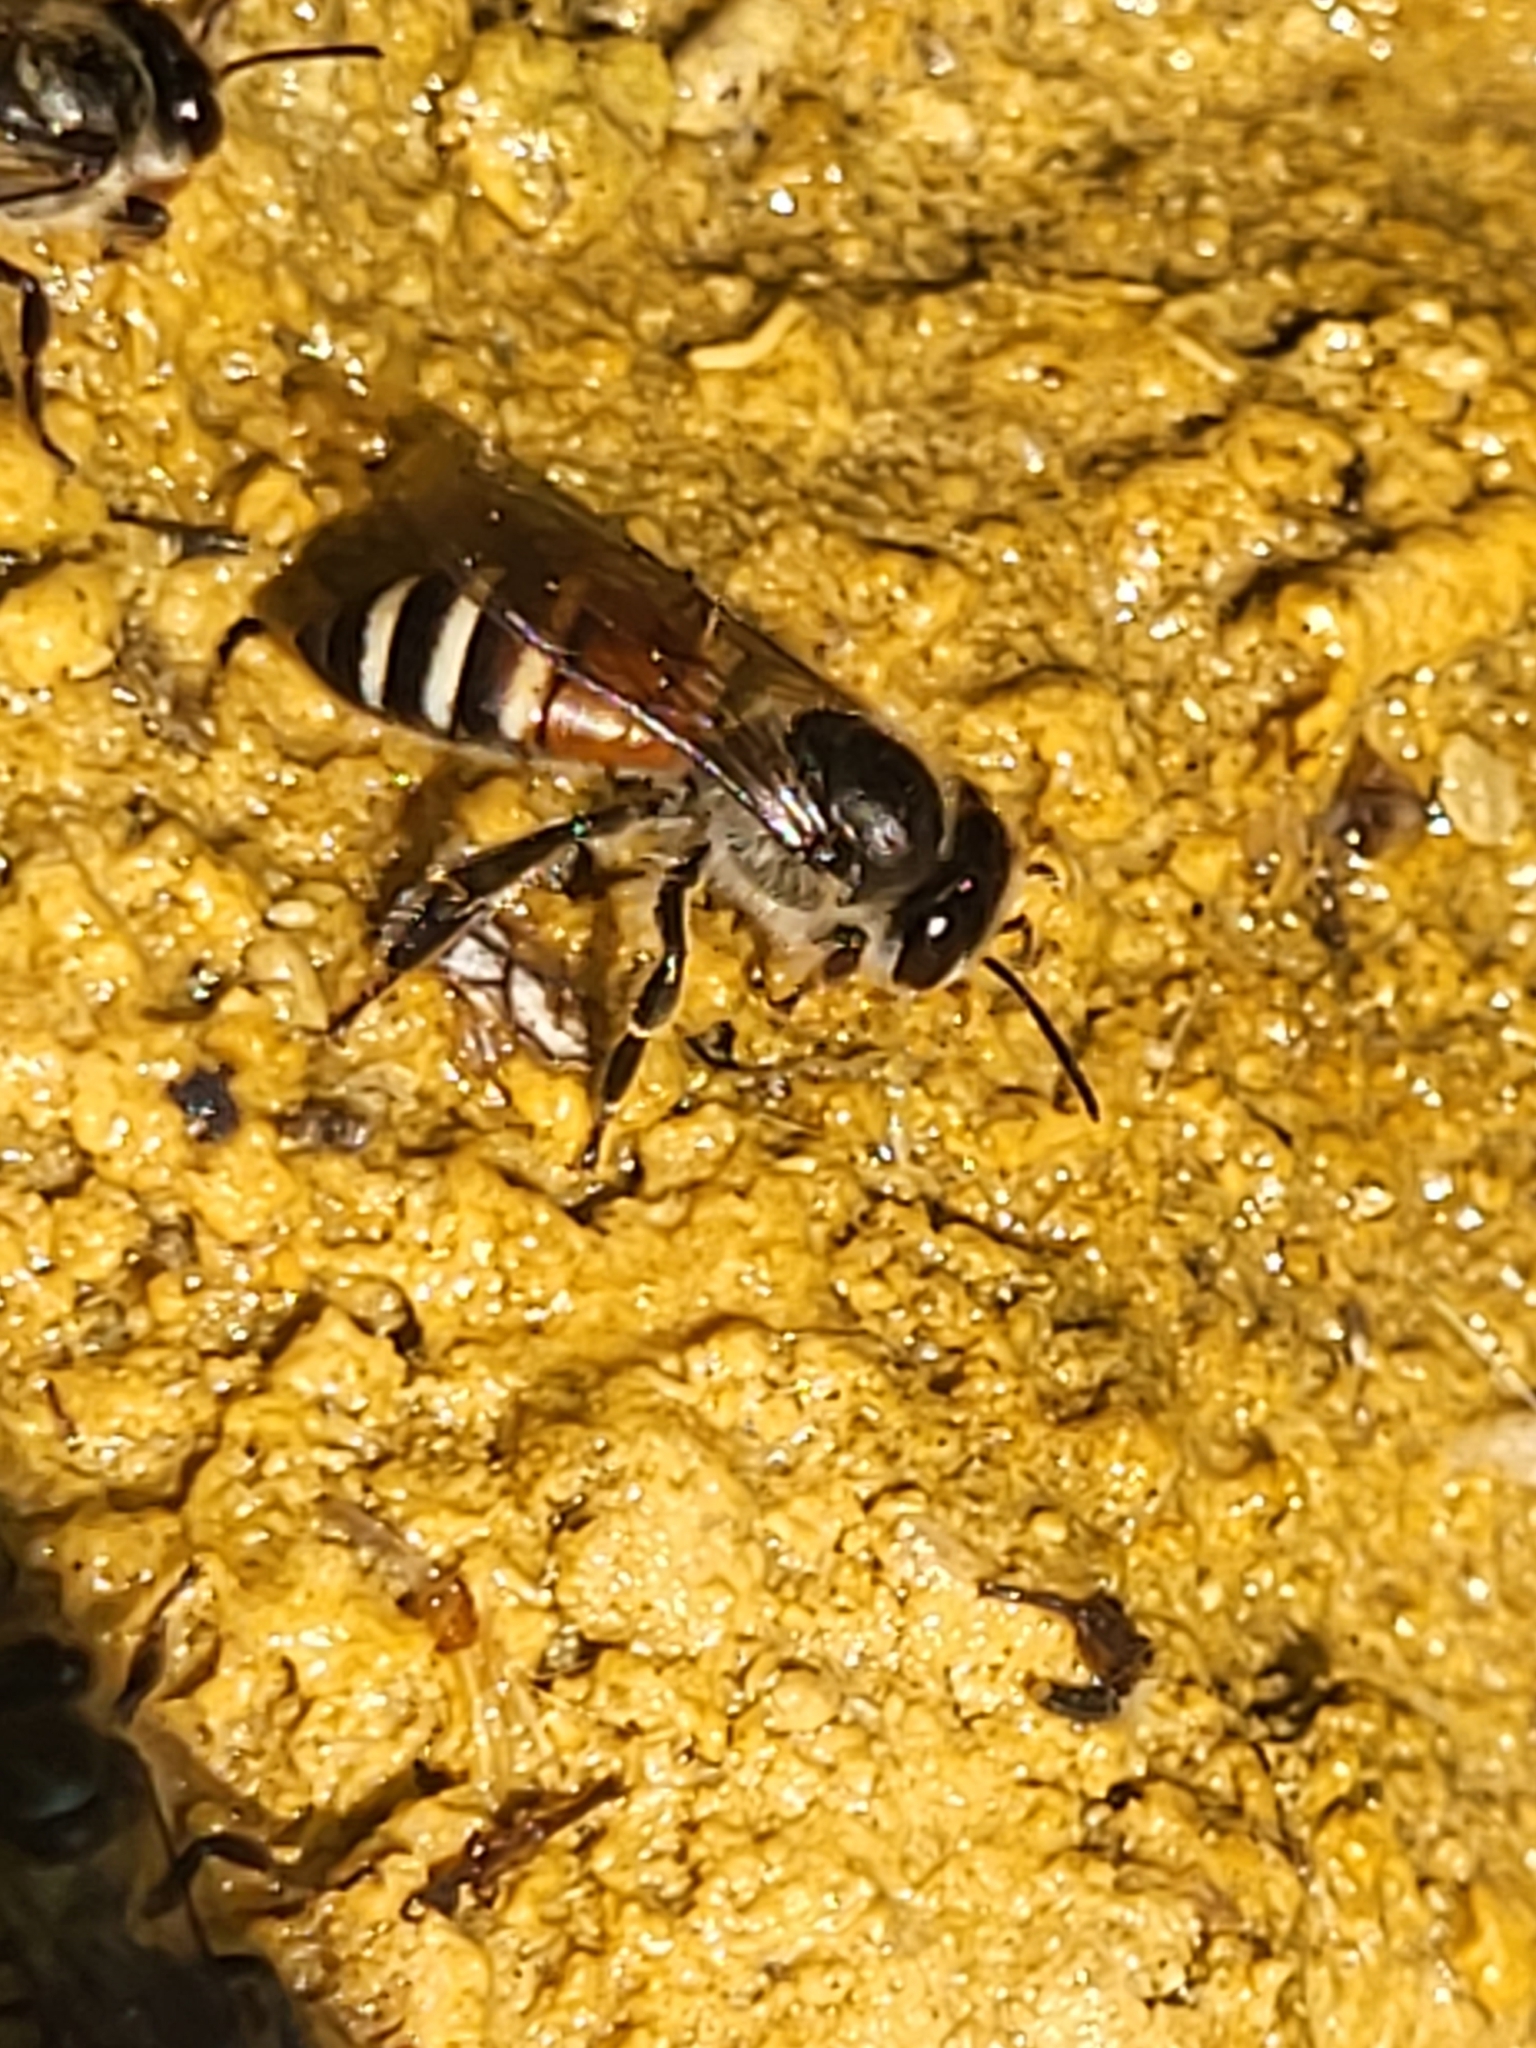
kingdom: Animalia
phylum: Arthropoda
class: Insecta
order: Hymenoptera
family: Apidae
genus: Apis
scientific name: Apis florea
